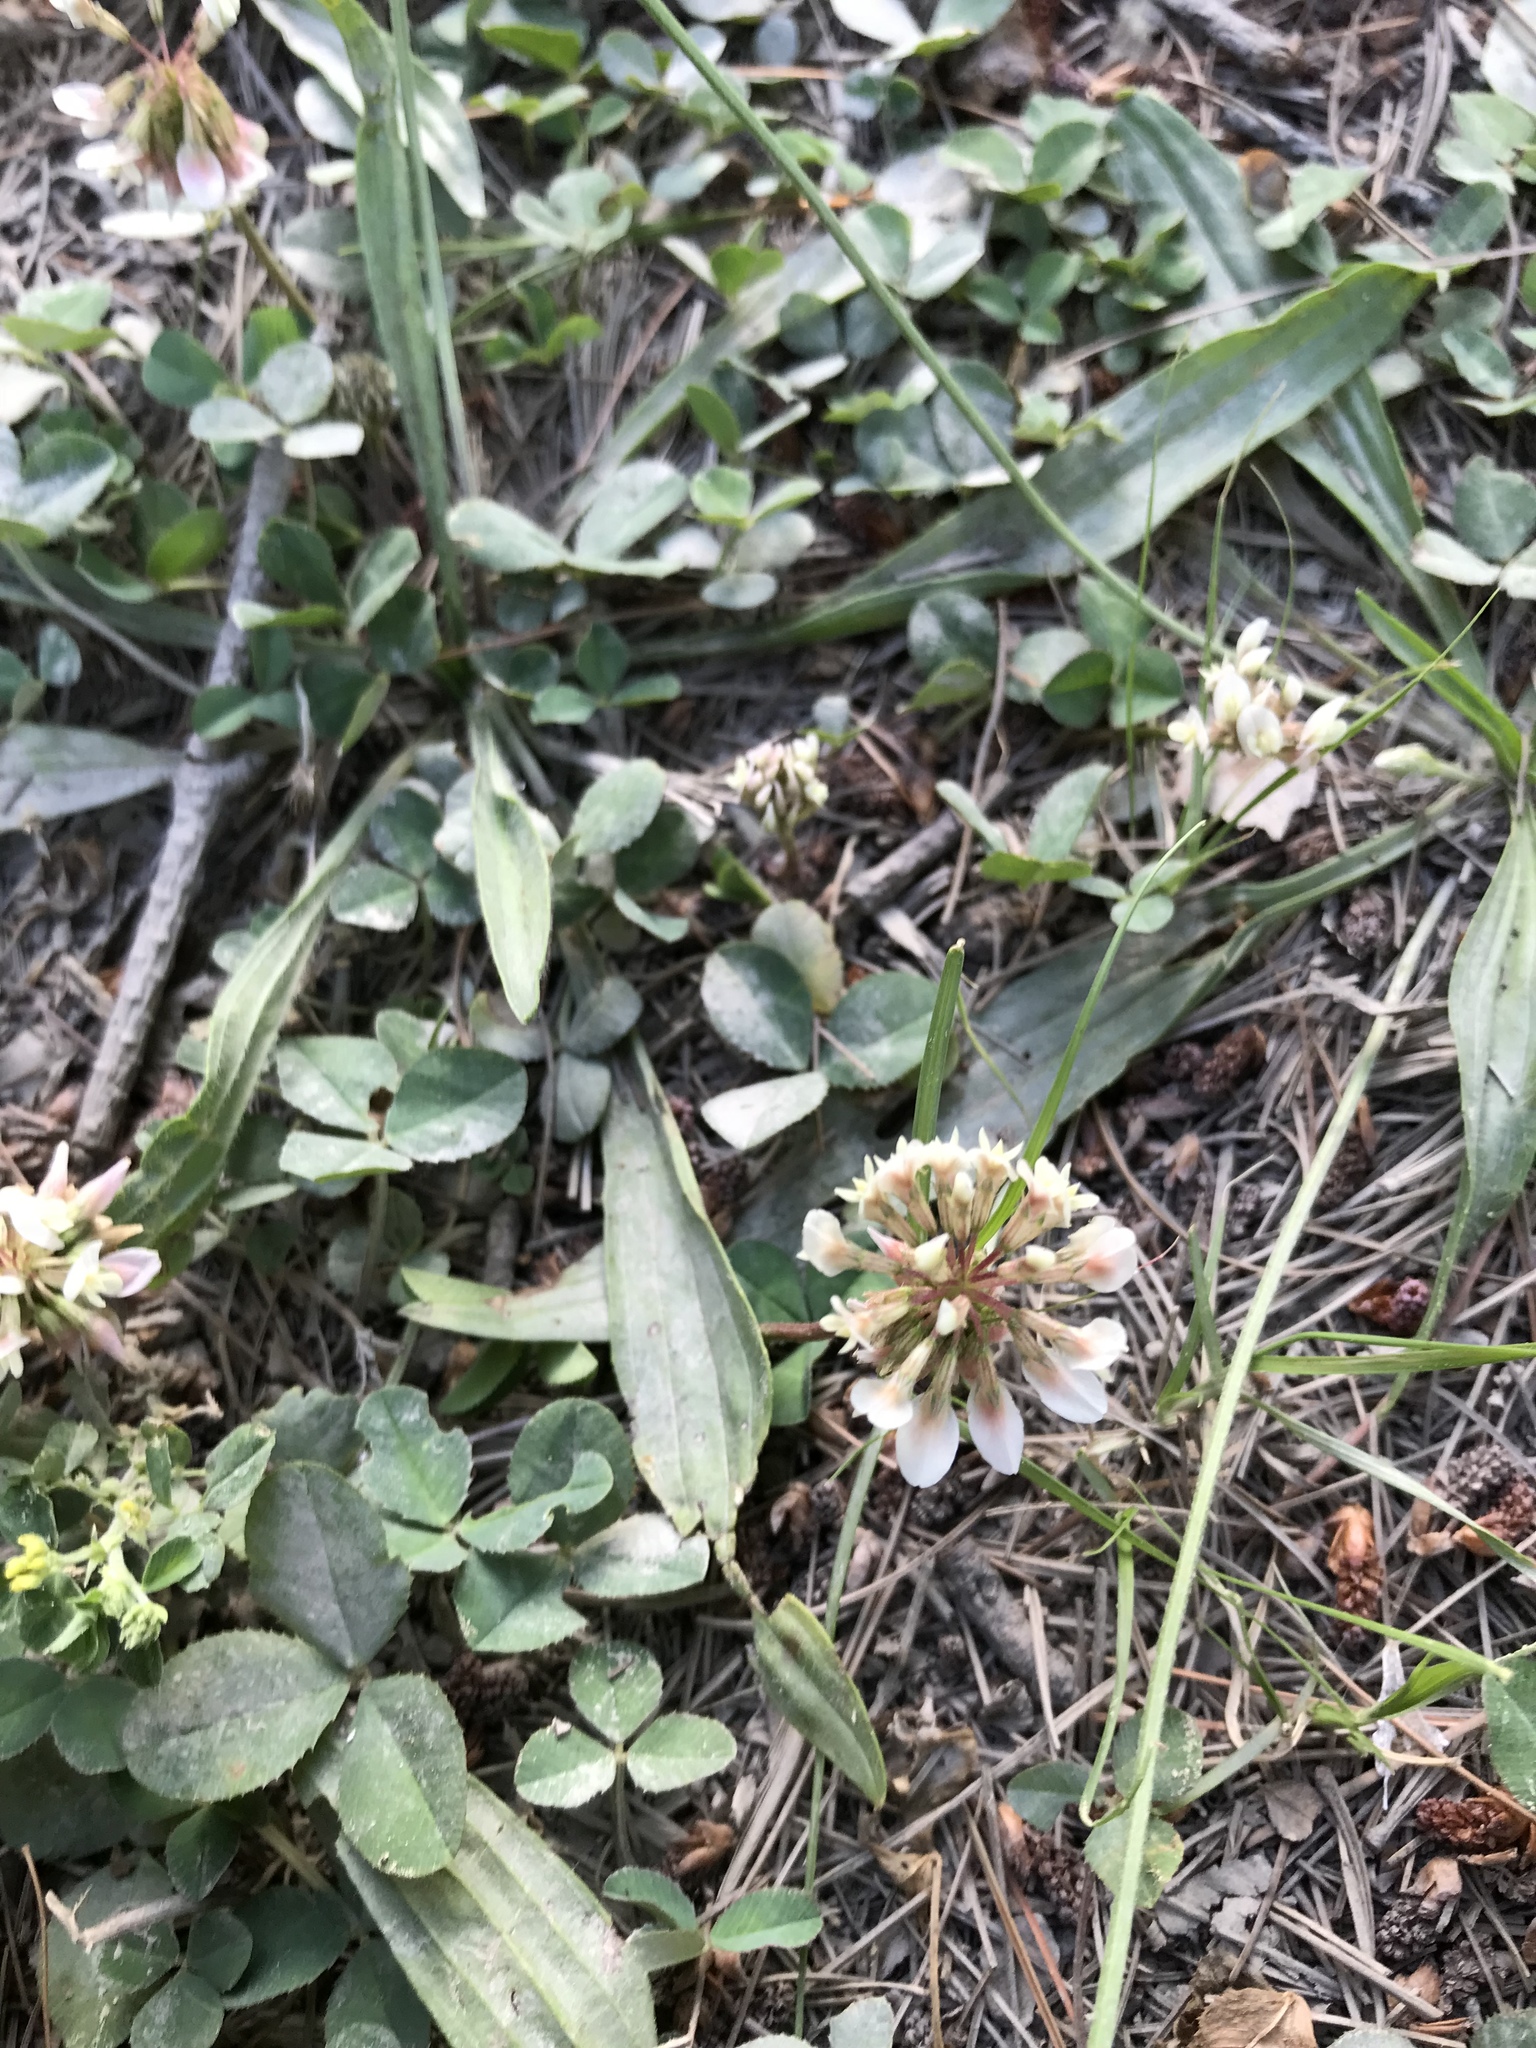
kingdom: Plantae
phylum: Tracheophyta
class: Magnoliopsida
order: Fabales
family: Fabaceae
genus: Trifolium
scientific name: Trifolium repens
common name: White clover
